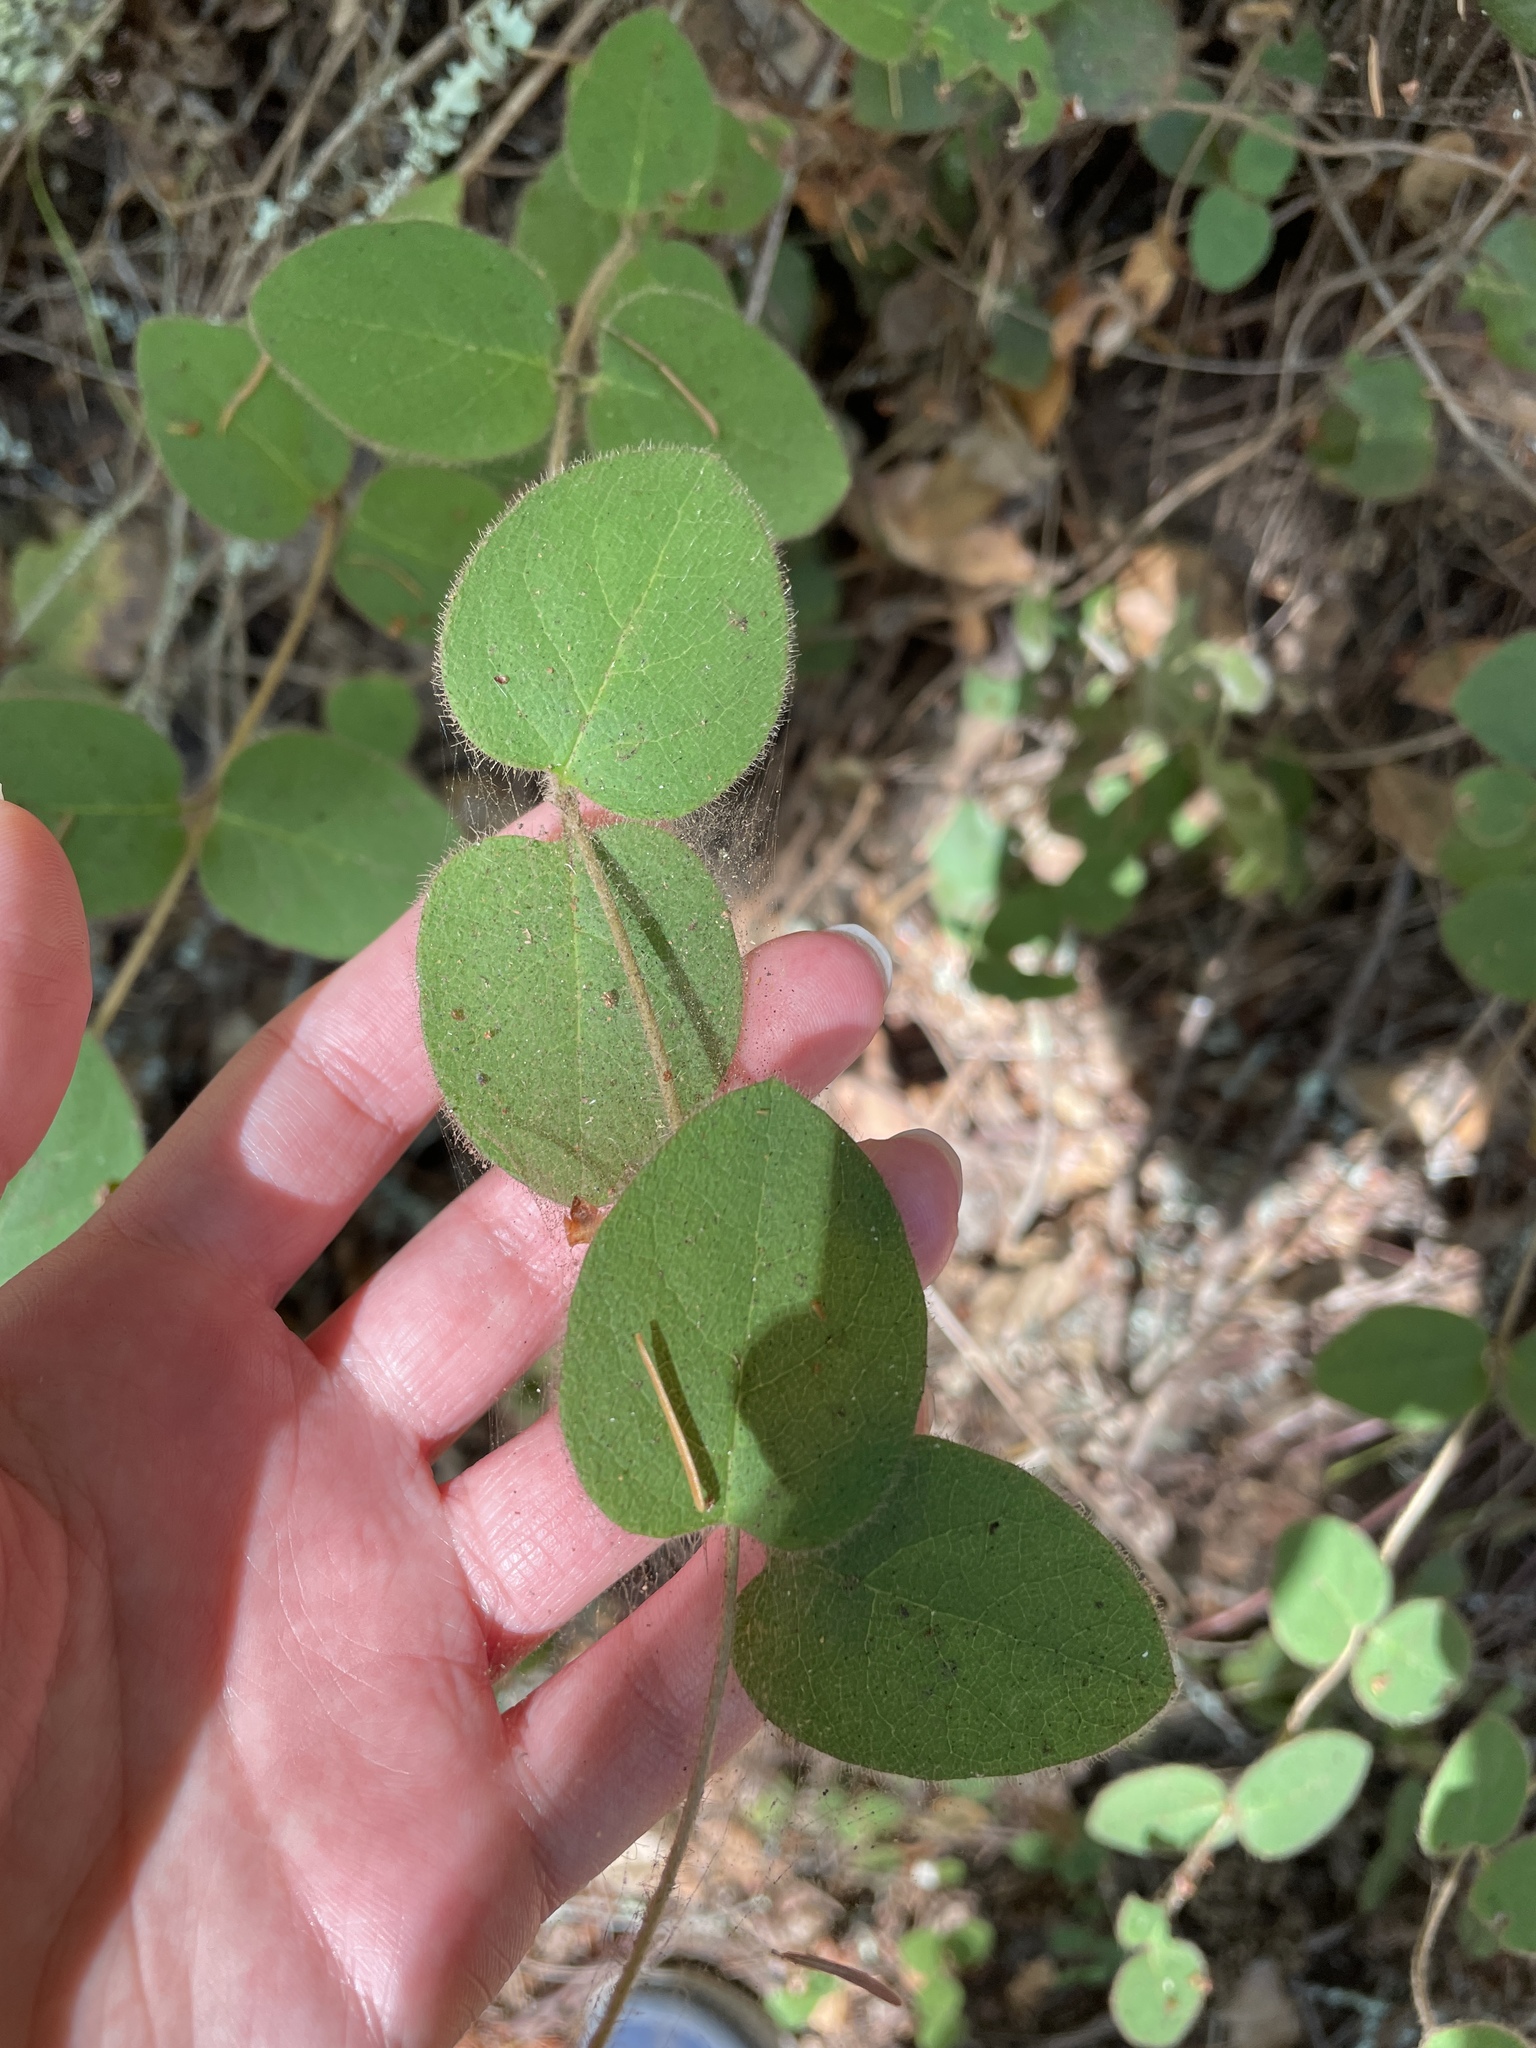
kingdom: Plantae
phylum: Tracheophyta
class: Magnoliopsida
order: Dipsacales
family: Caprifoliaceae
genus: Lonicera
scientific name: Lonicera hispidula
